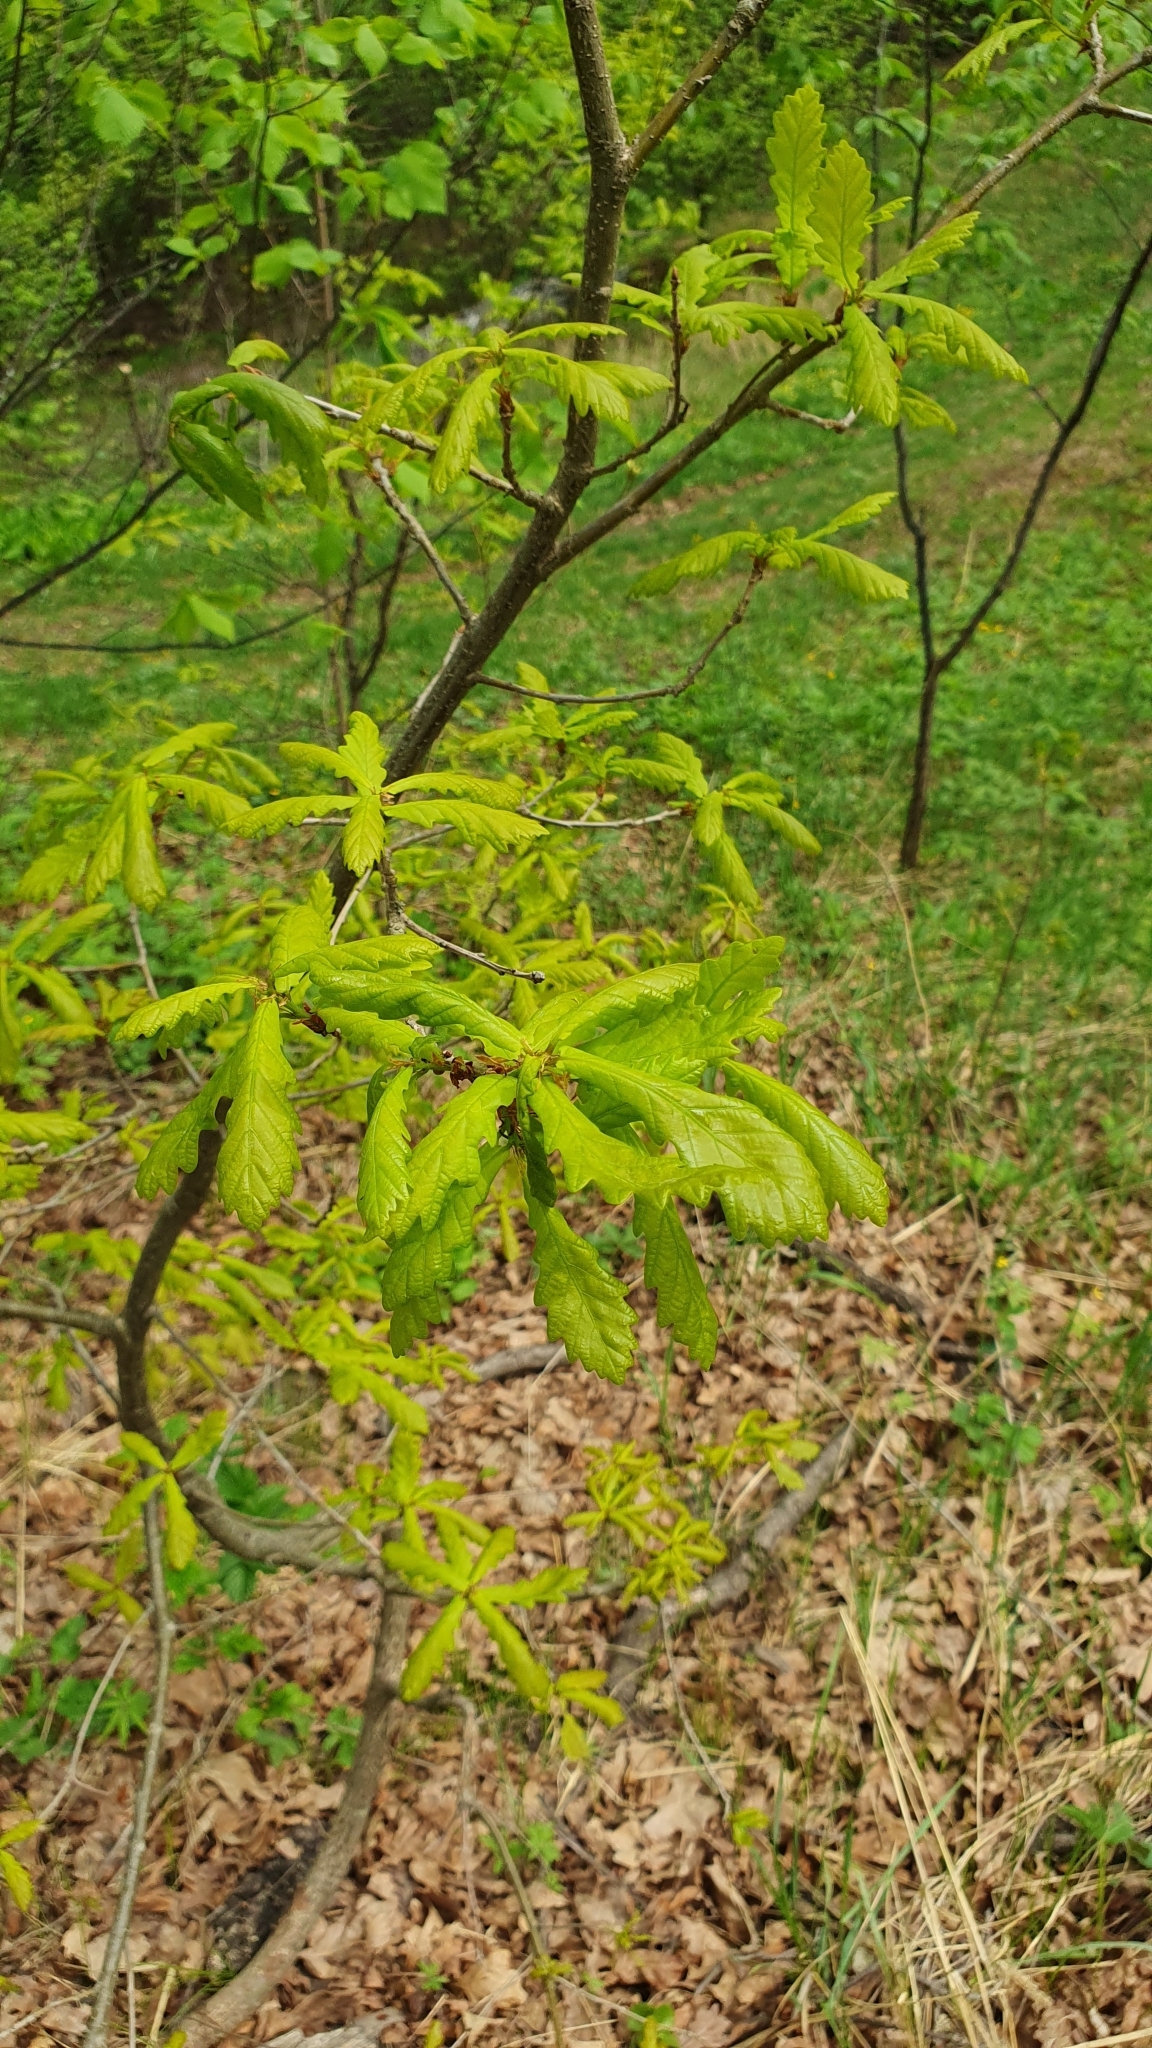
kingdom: Plantae
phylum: Tracheophyta
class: Magnoliopsida
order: Fagales
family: Fagaceae
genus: Quercus
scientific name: Quercus robur
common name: Pedunculate oak
